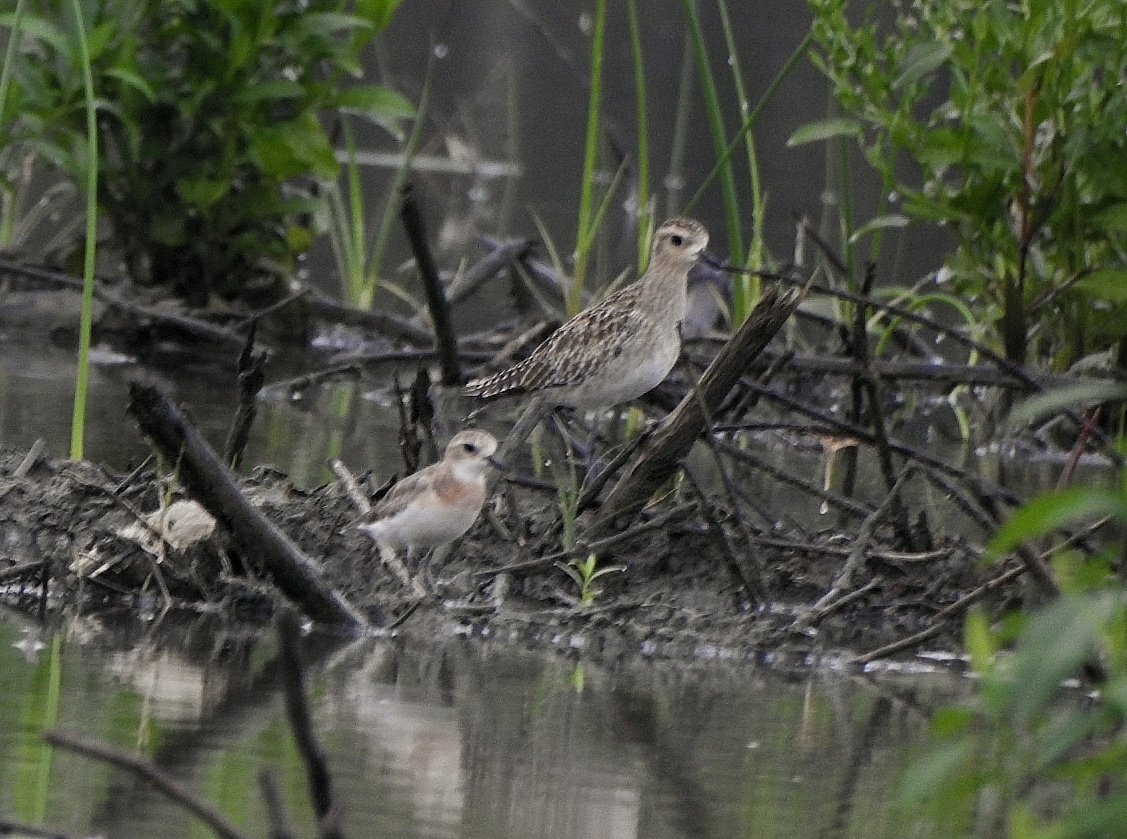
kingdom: Animalia
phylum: Chordata
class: Aves
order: Charadriiformes
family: Charadriidae
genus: Pluvialis
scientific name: Pluvialis fulva
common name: Pacific golden plover
